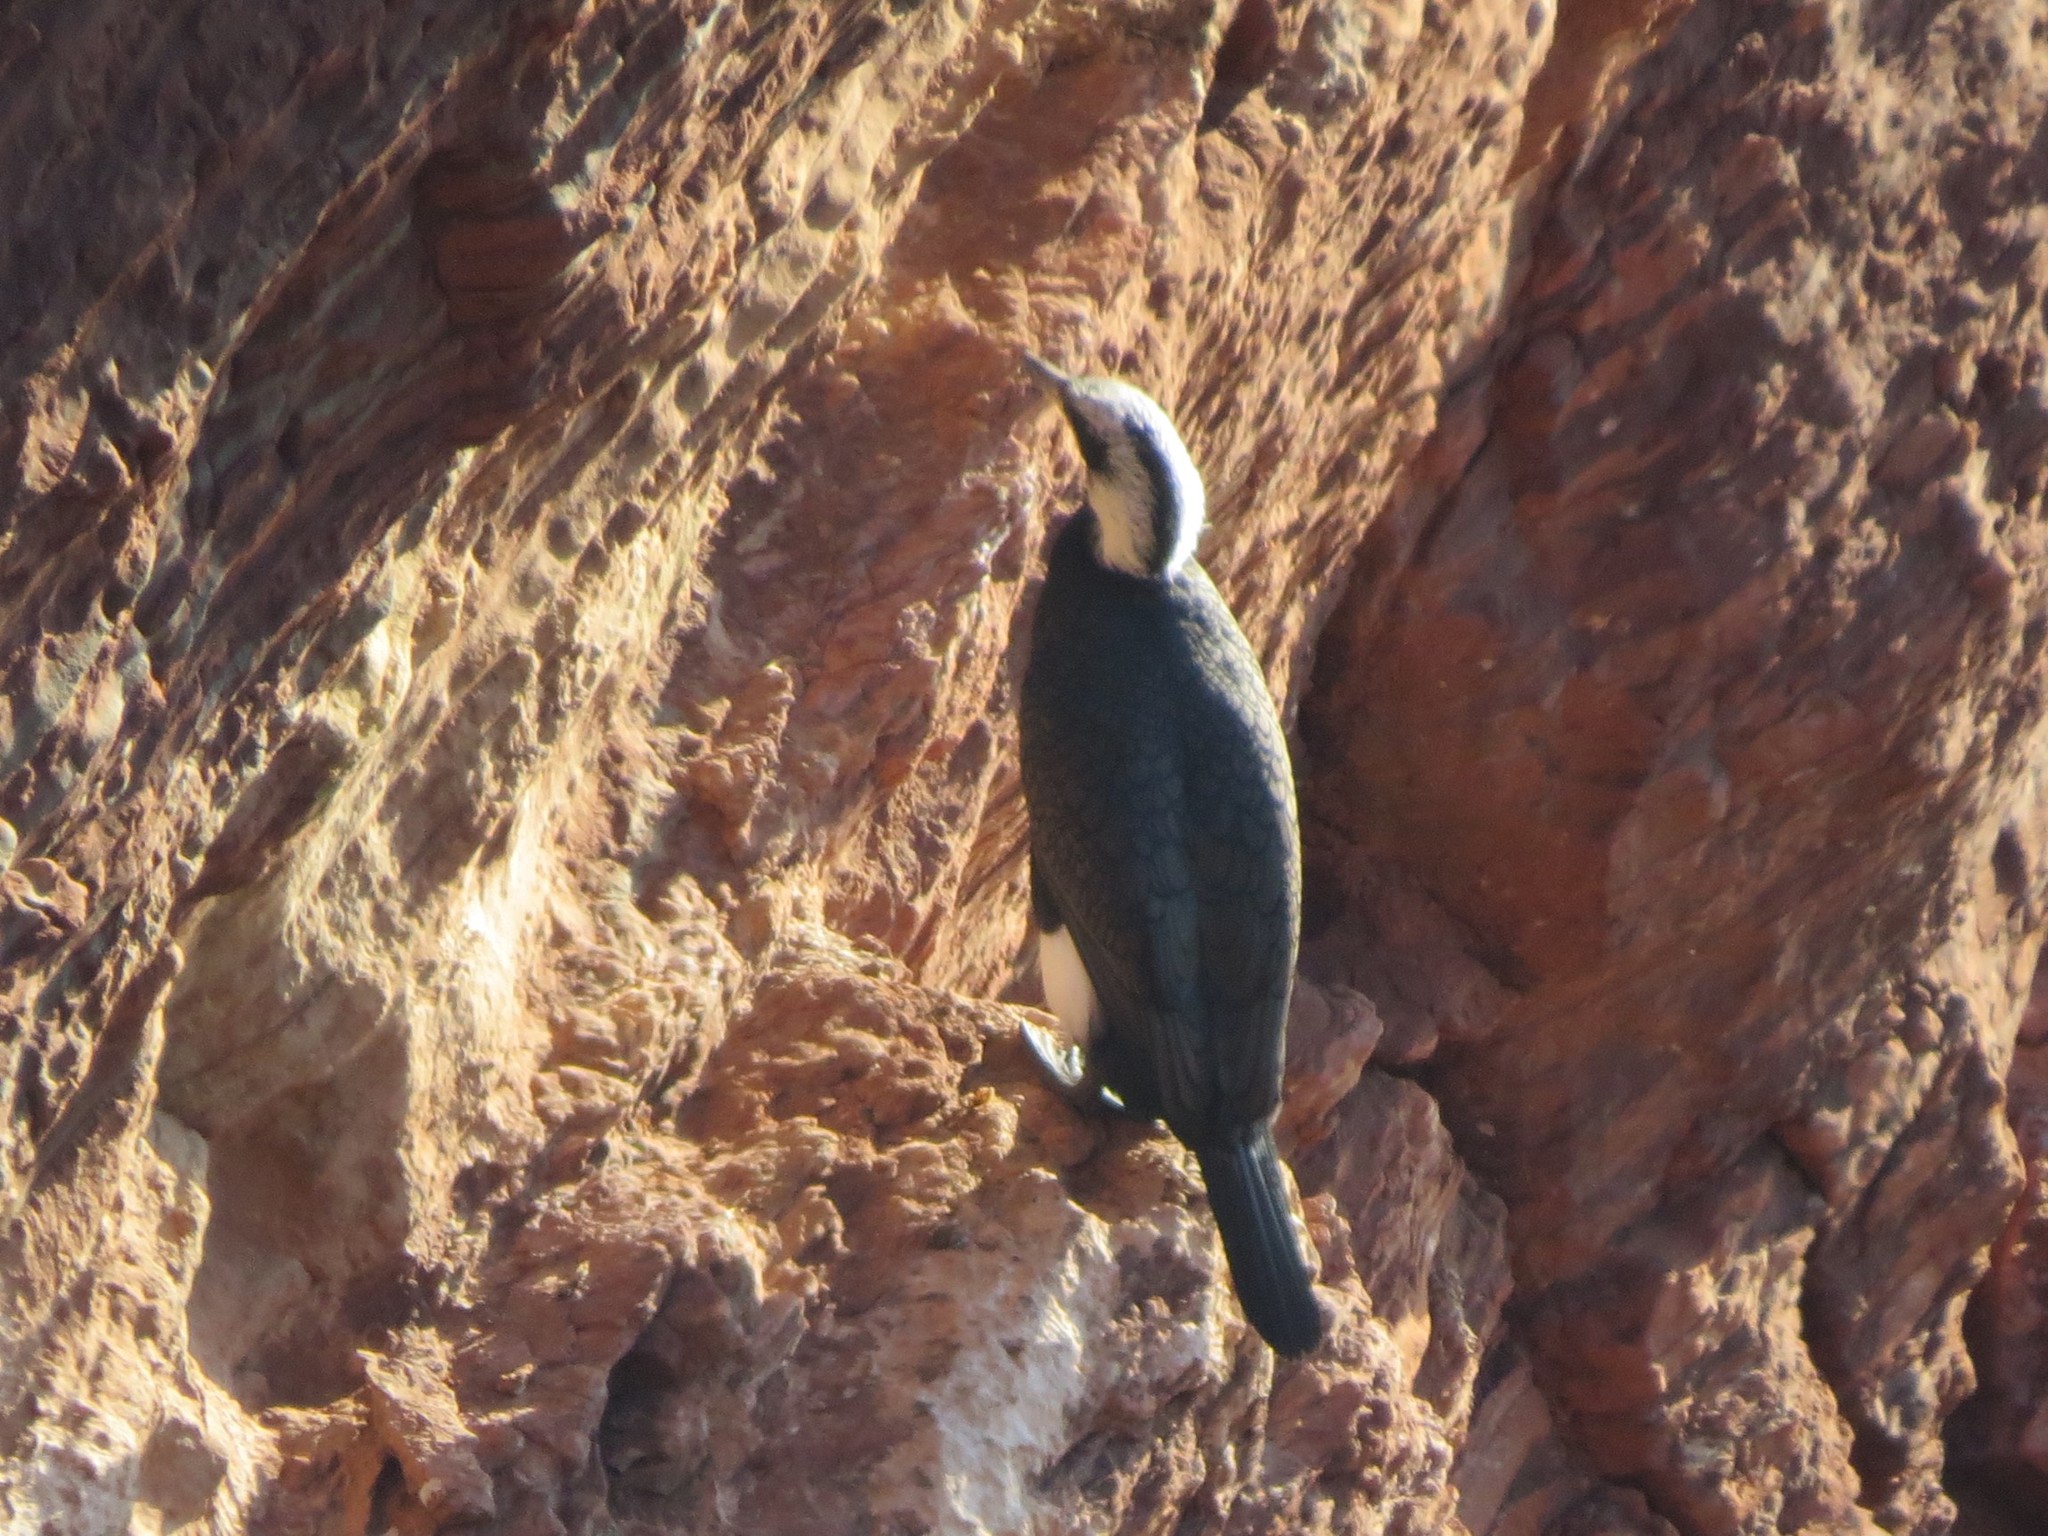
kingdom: Animalia
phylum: Chordata
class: Aves
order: Suliformes
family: Phalacrocoracidae
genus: Phalacrocorax
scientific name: Phalacrocorax carbo
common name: Great cormorant
